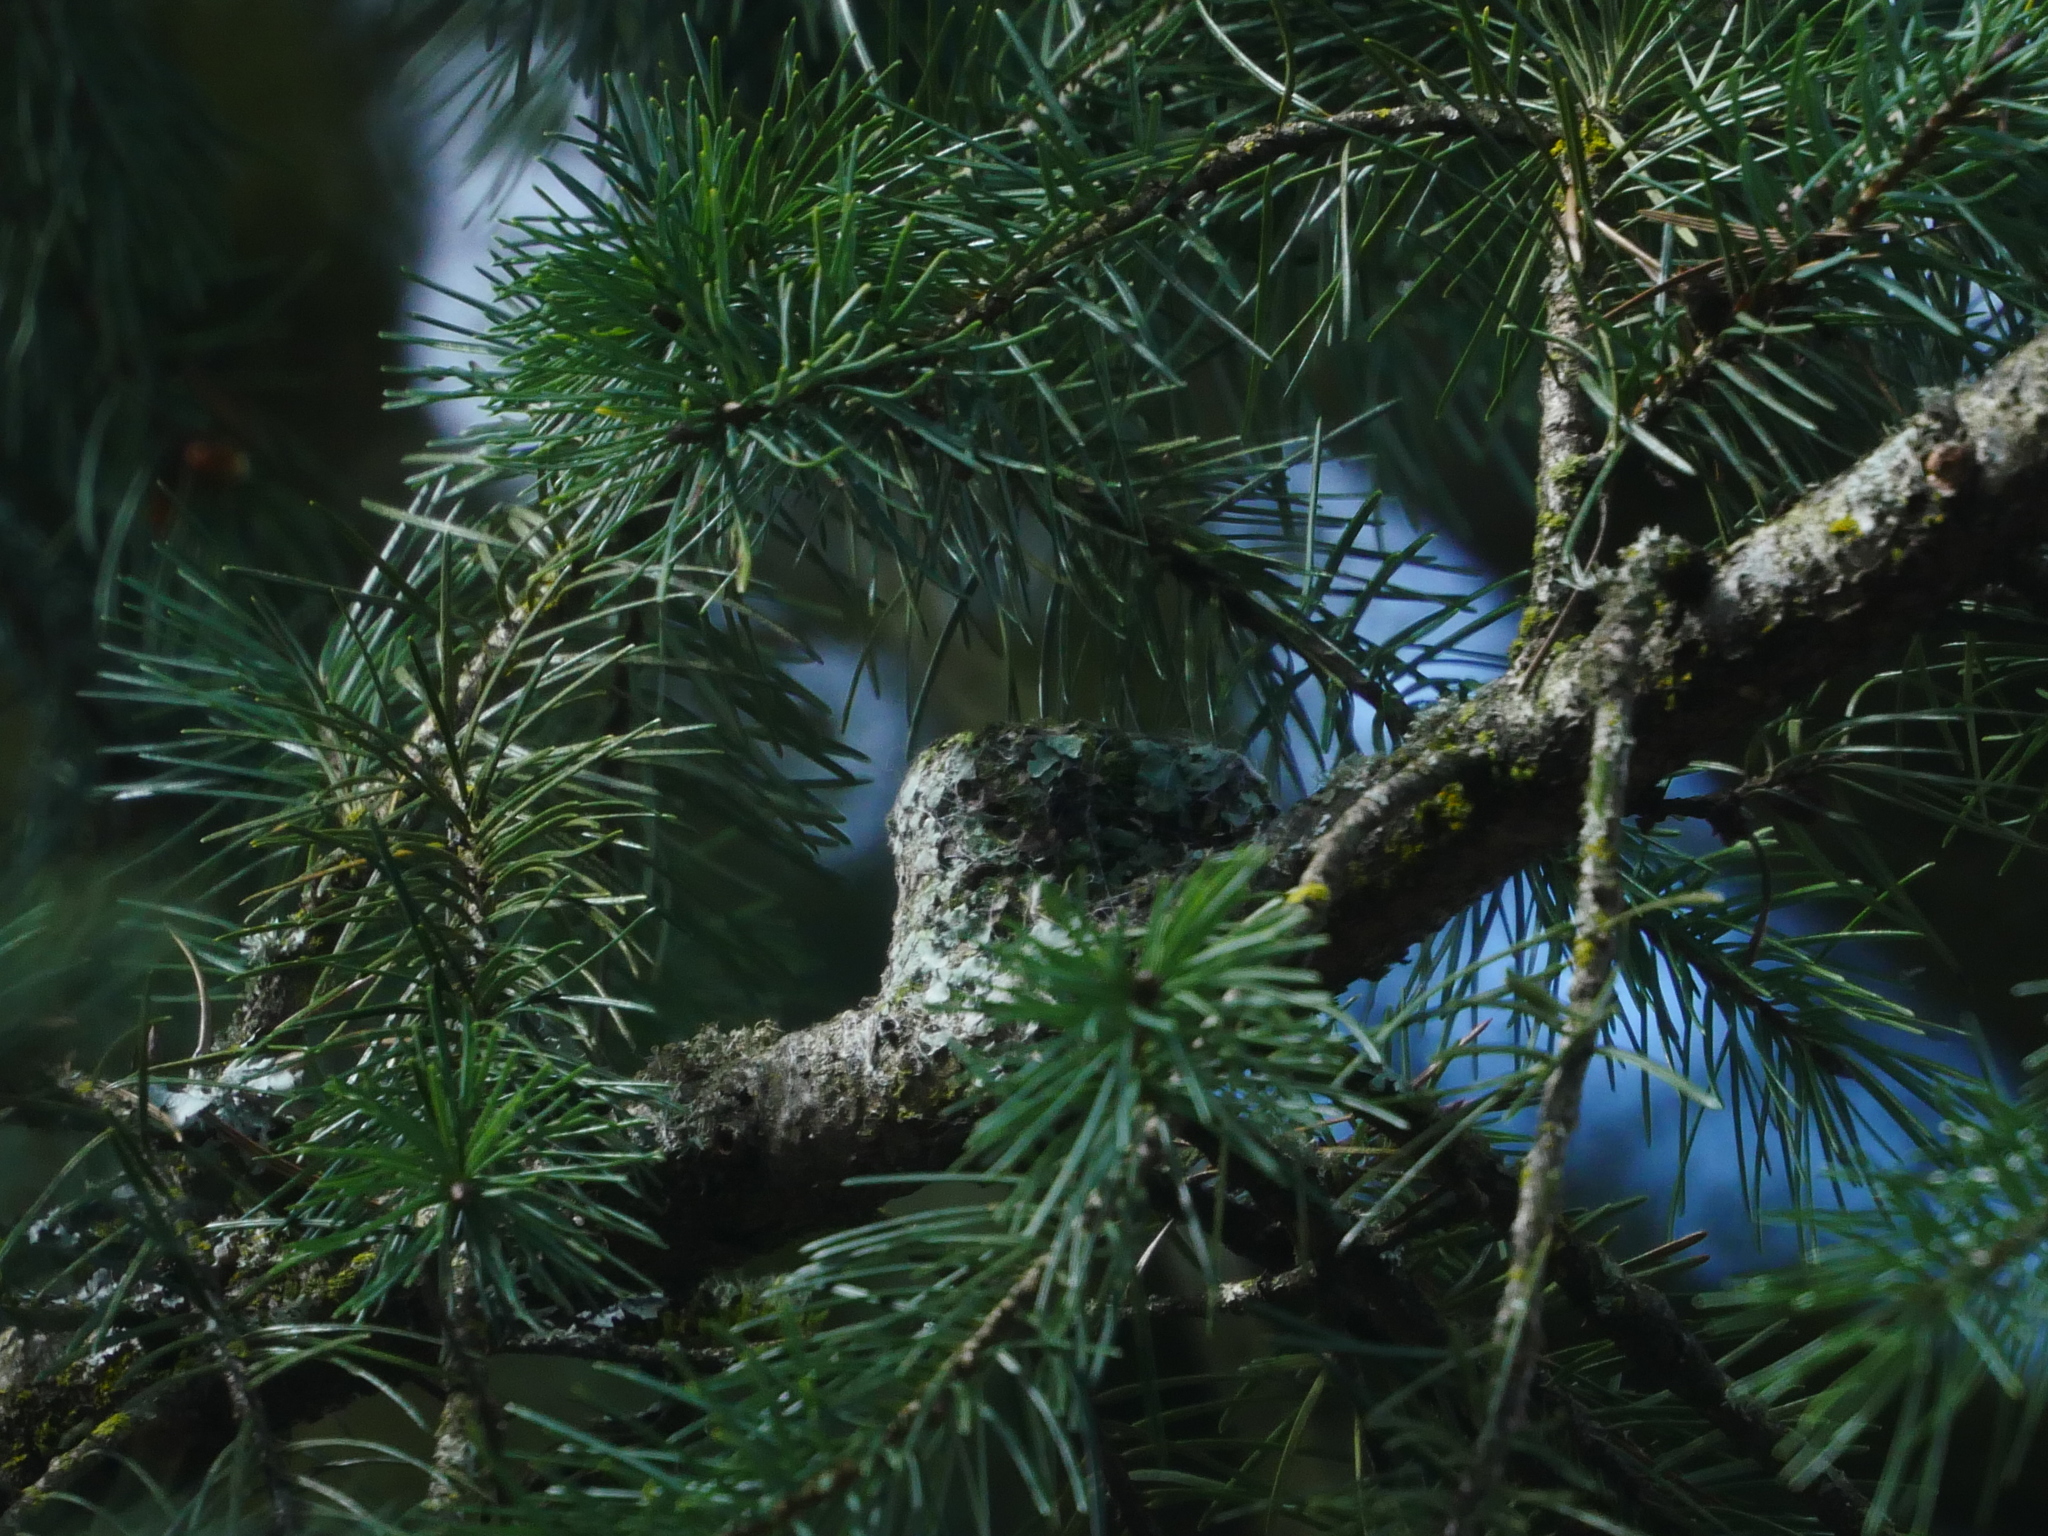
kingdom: Animalia
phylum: Chordata
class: Aves
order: Apodiformes
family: Trochilidae
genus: Calypte
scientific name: Calypte anna
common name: Anna's hummingbird
